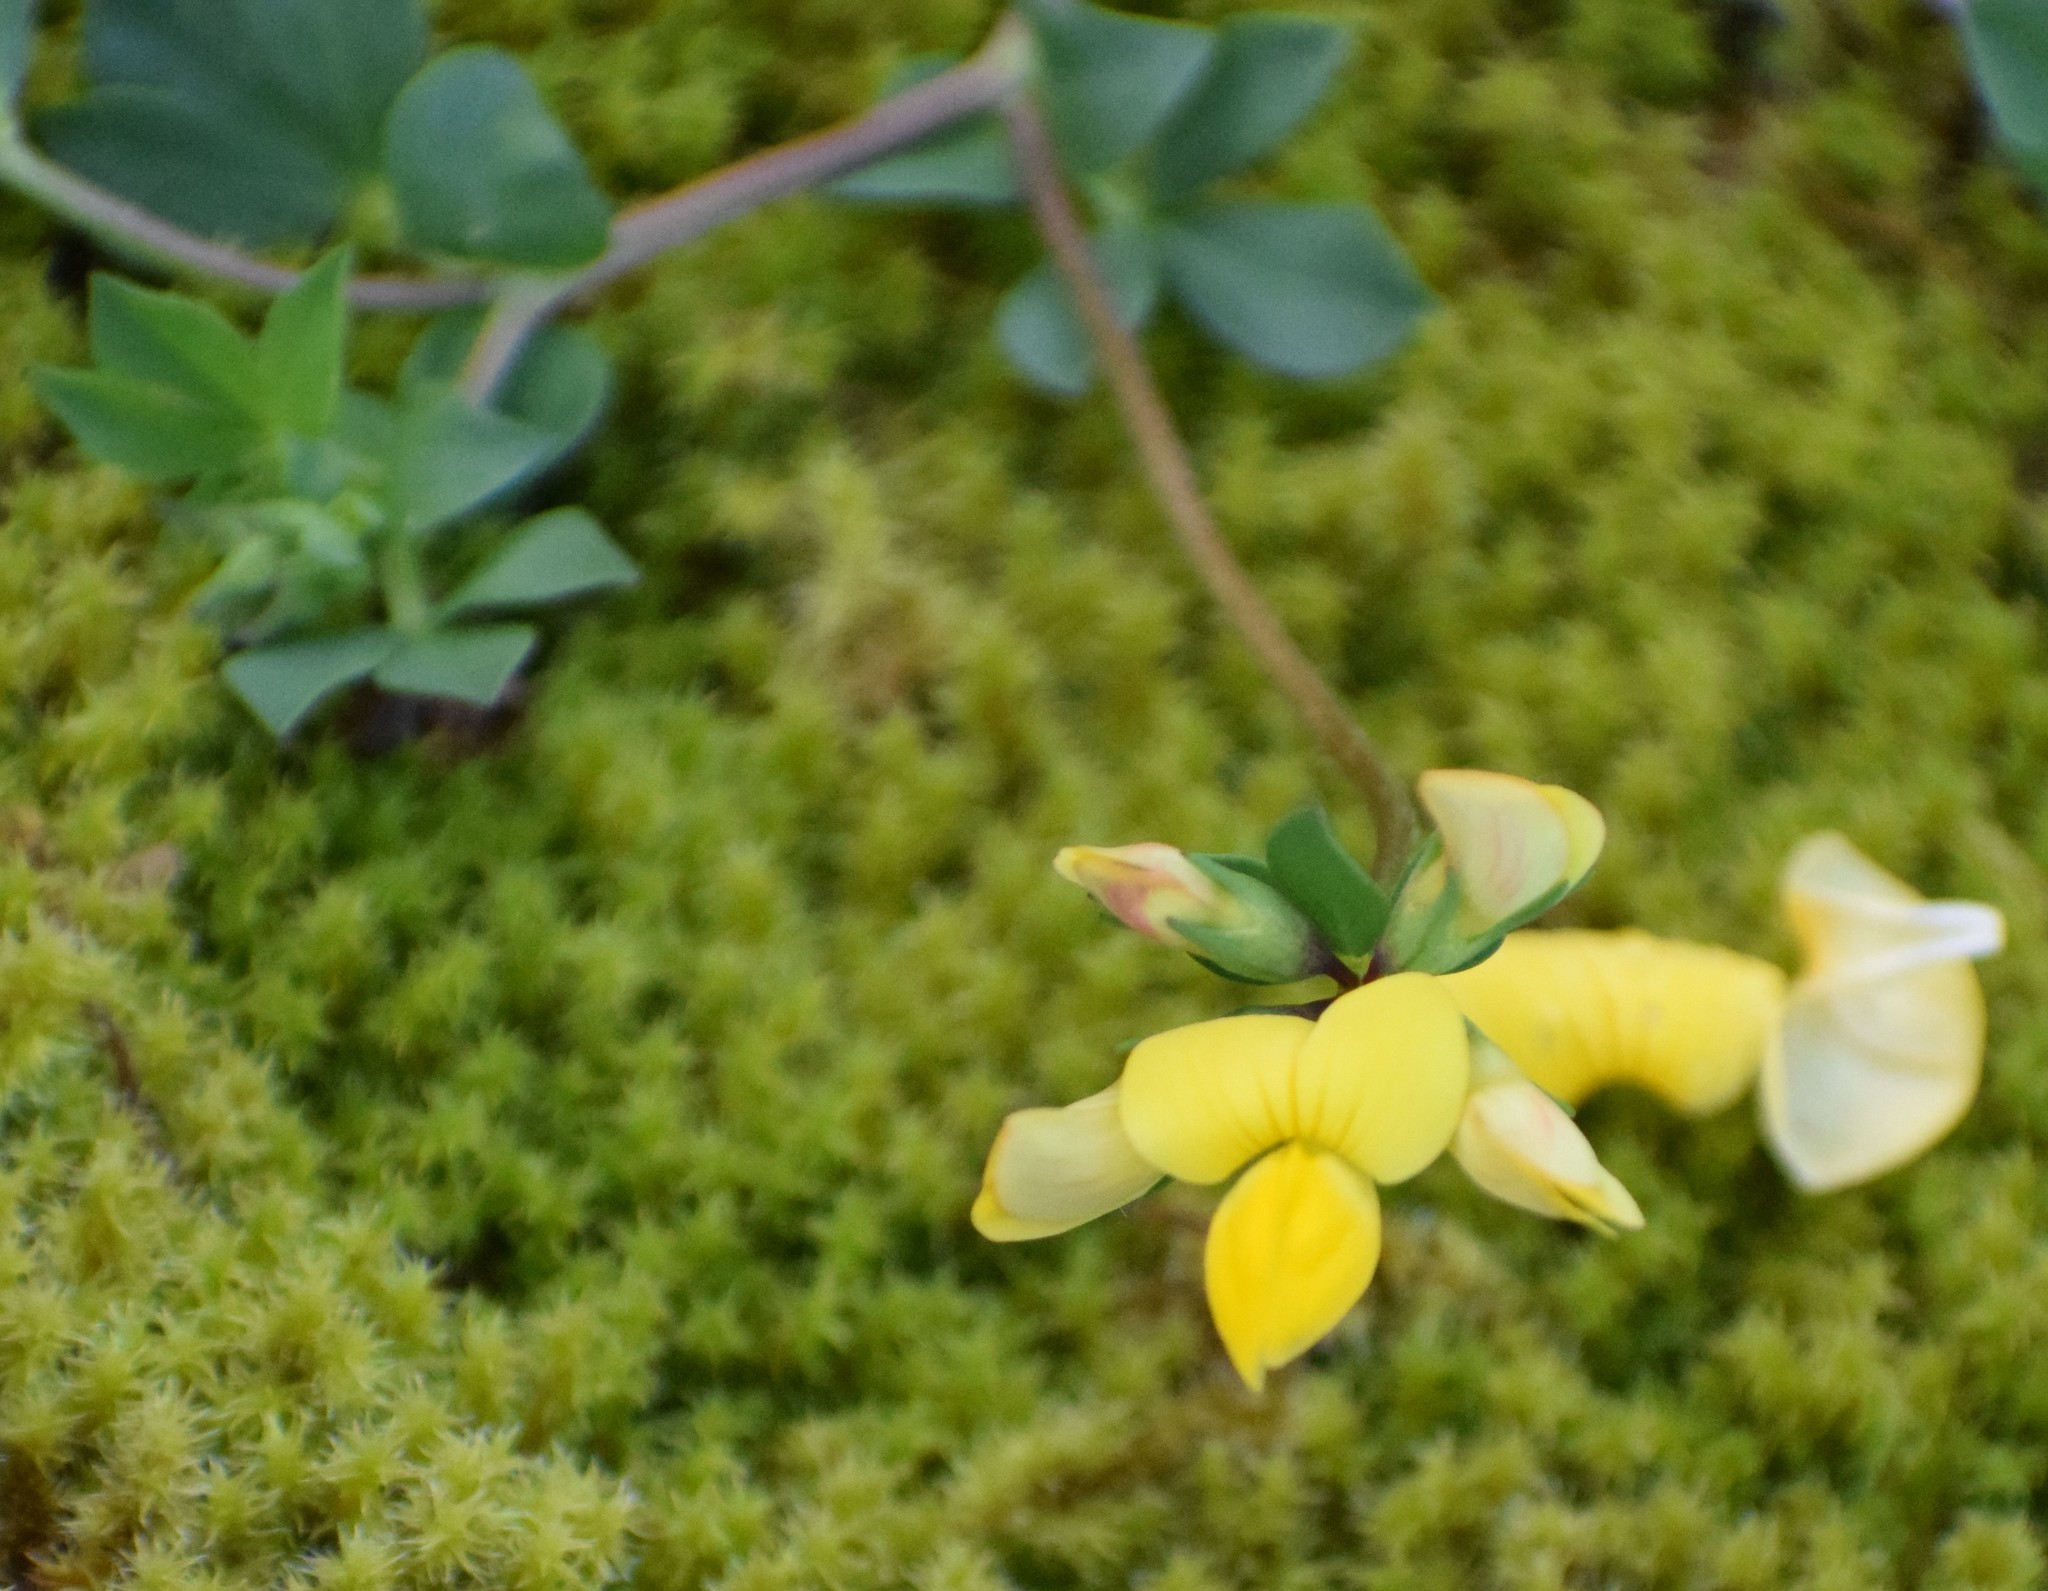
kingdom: Plantae
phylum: Tracheophyta
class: Magnoliopsida
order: Fabales
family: Fabaceae
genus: Lotus
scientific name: Lotus corniculatus
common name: Common bird's-foot-trefoil
